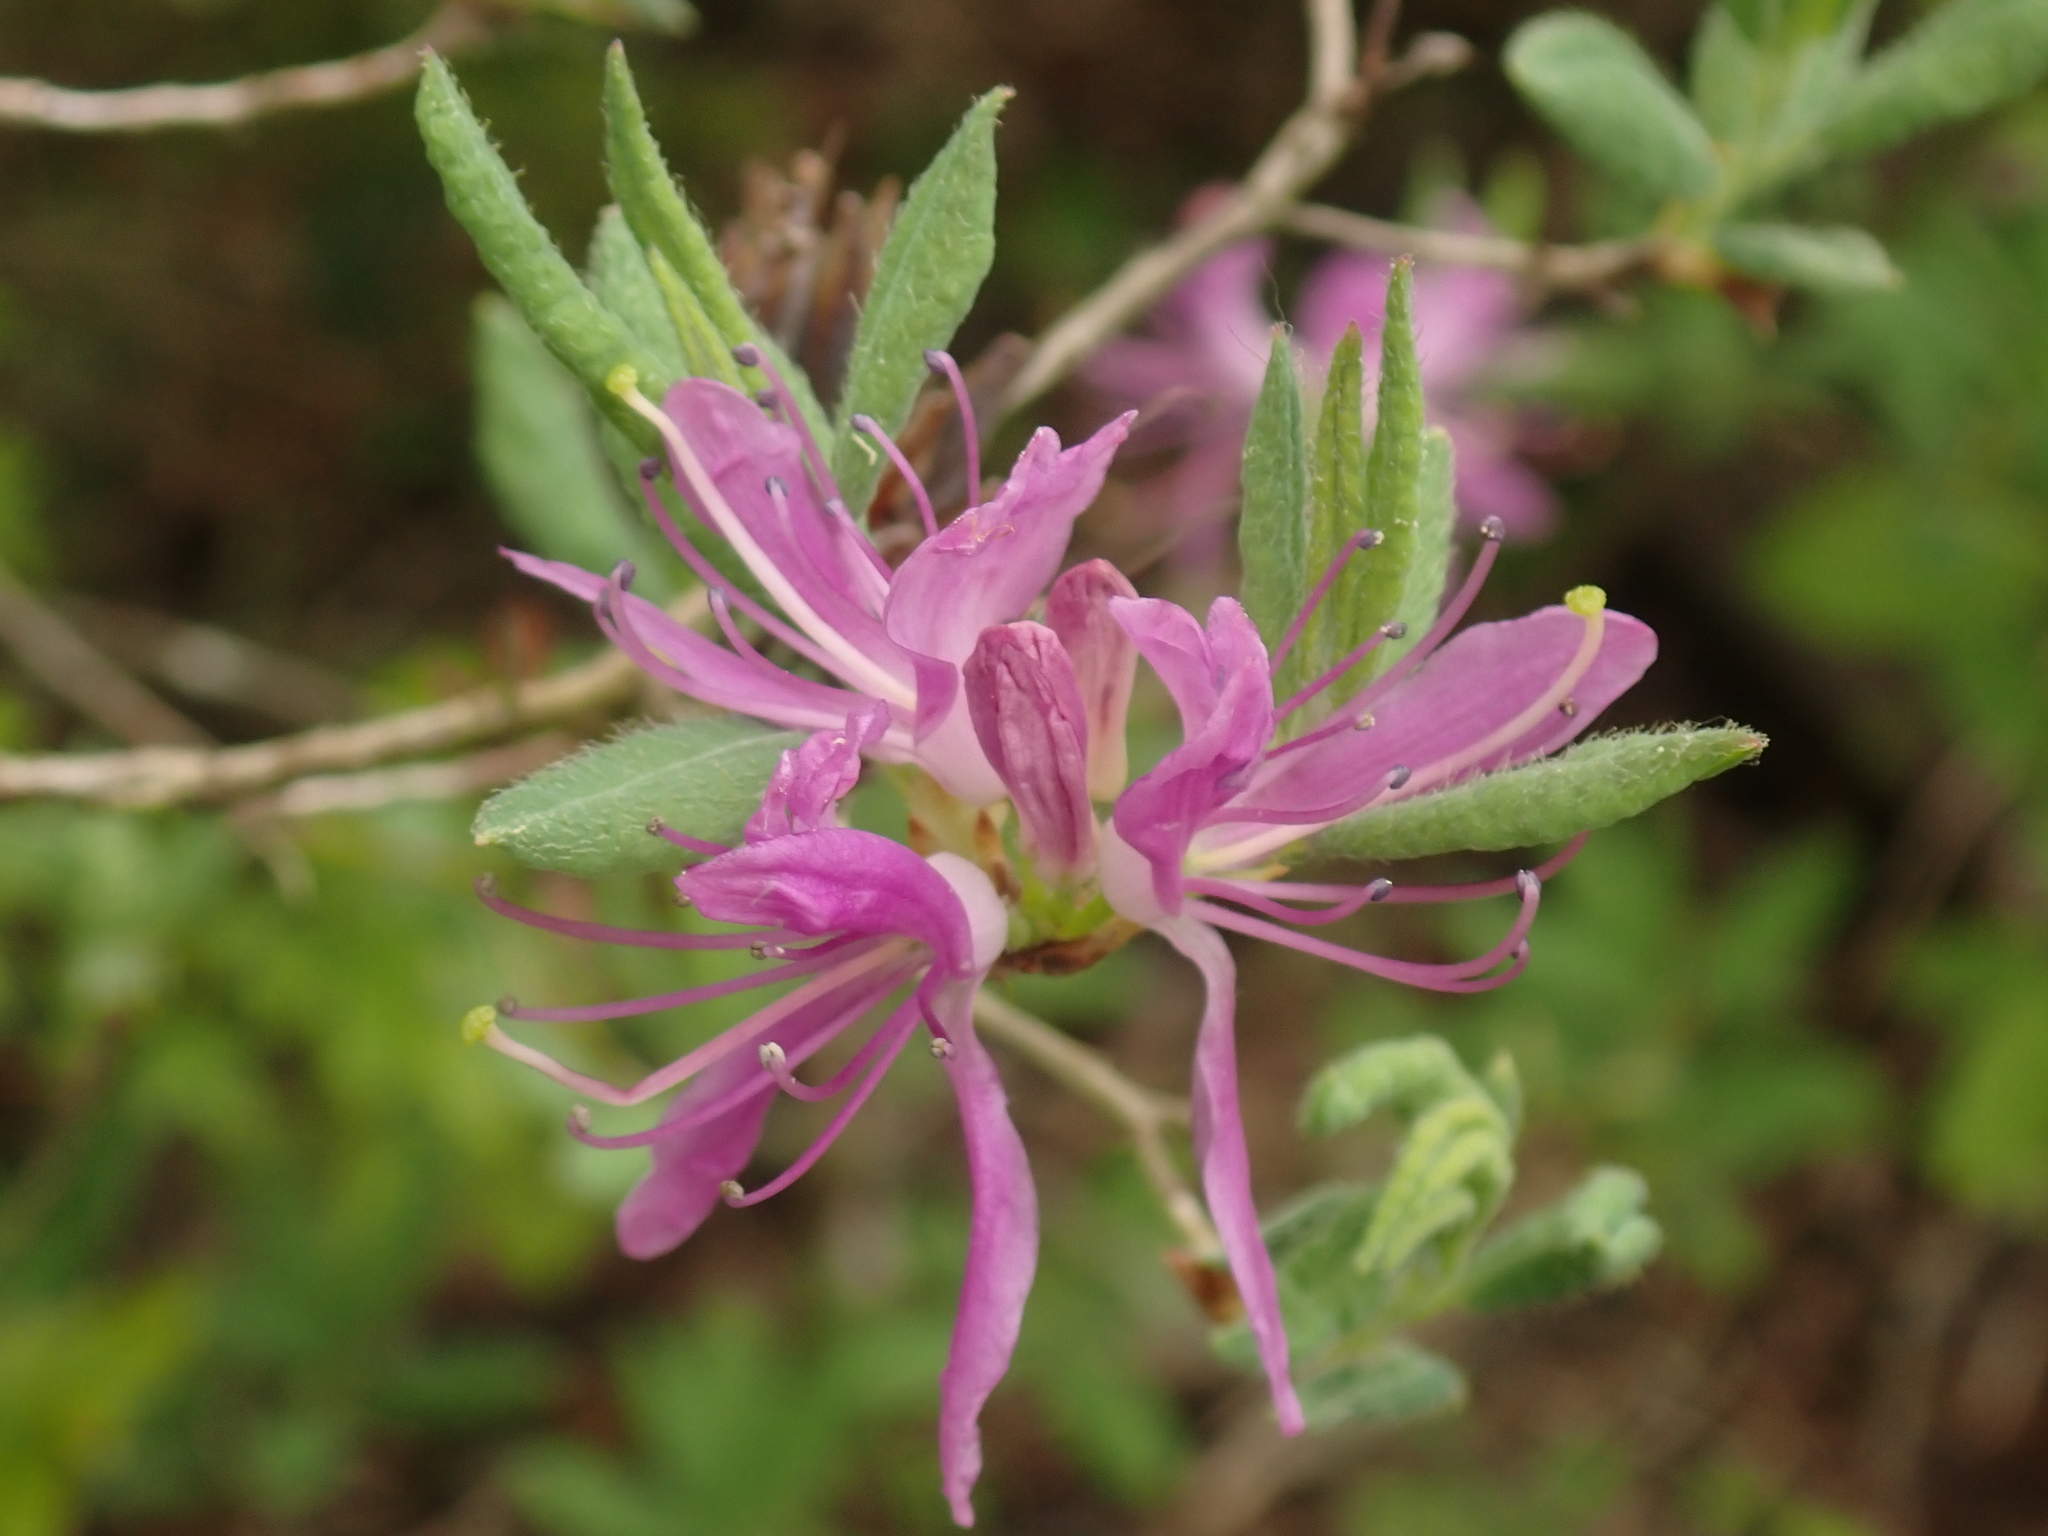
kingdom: Plantae
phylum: Tracheophyta
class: Magnoliopsida
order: Ericales
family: Ericaceae
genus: Rhododendron
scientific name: Rhododendron canadense
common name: Rhodora
